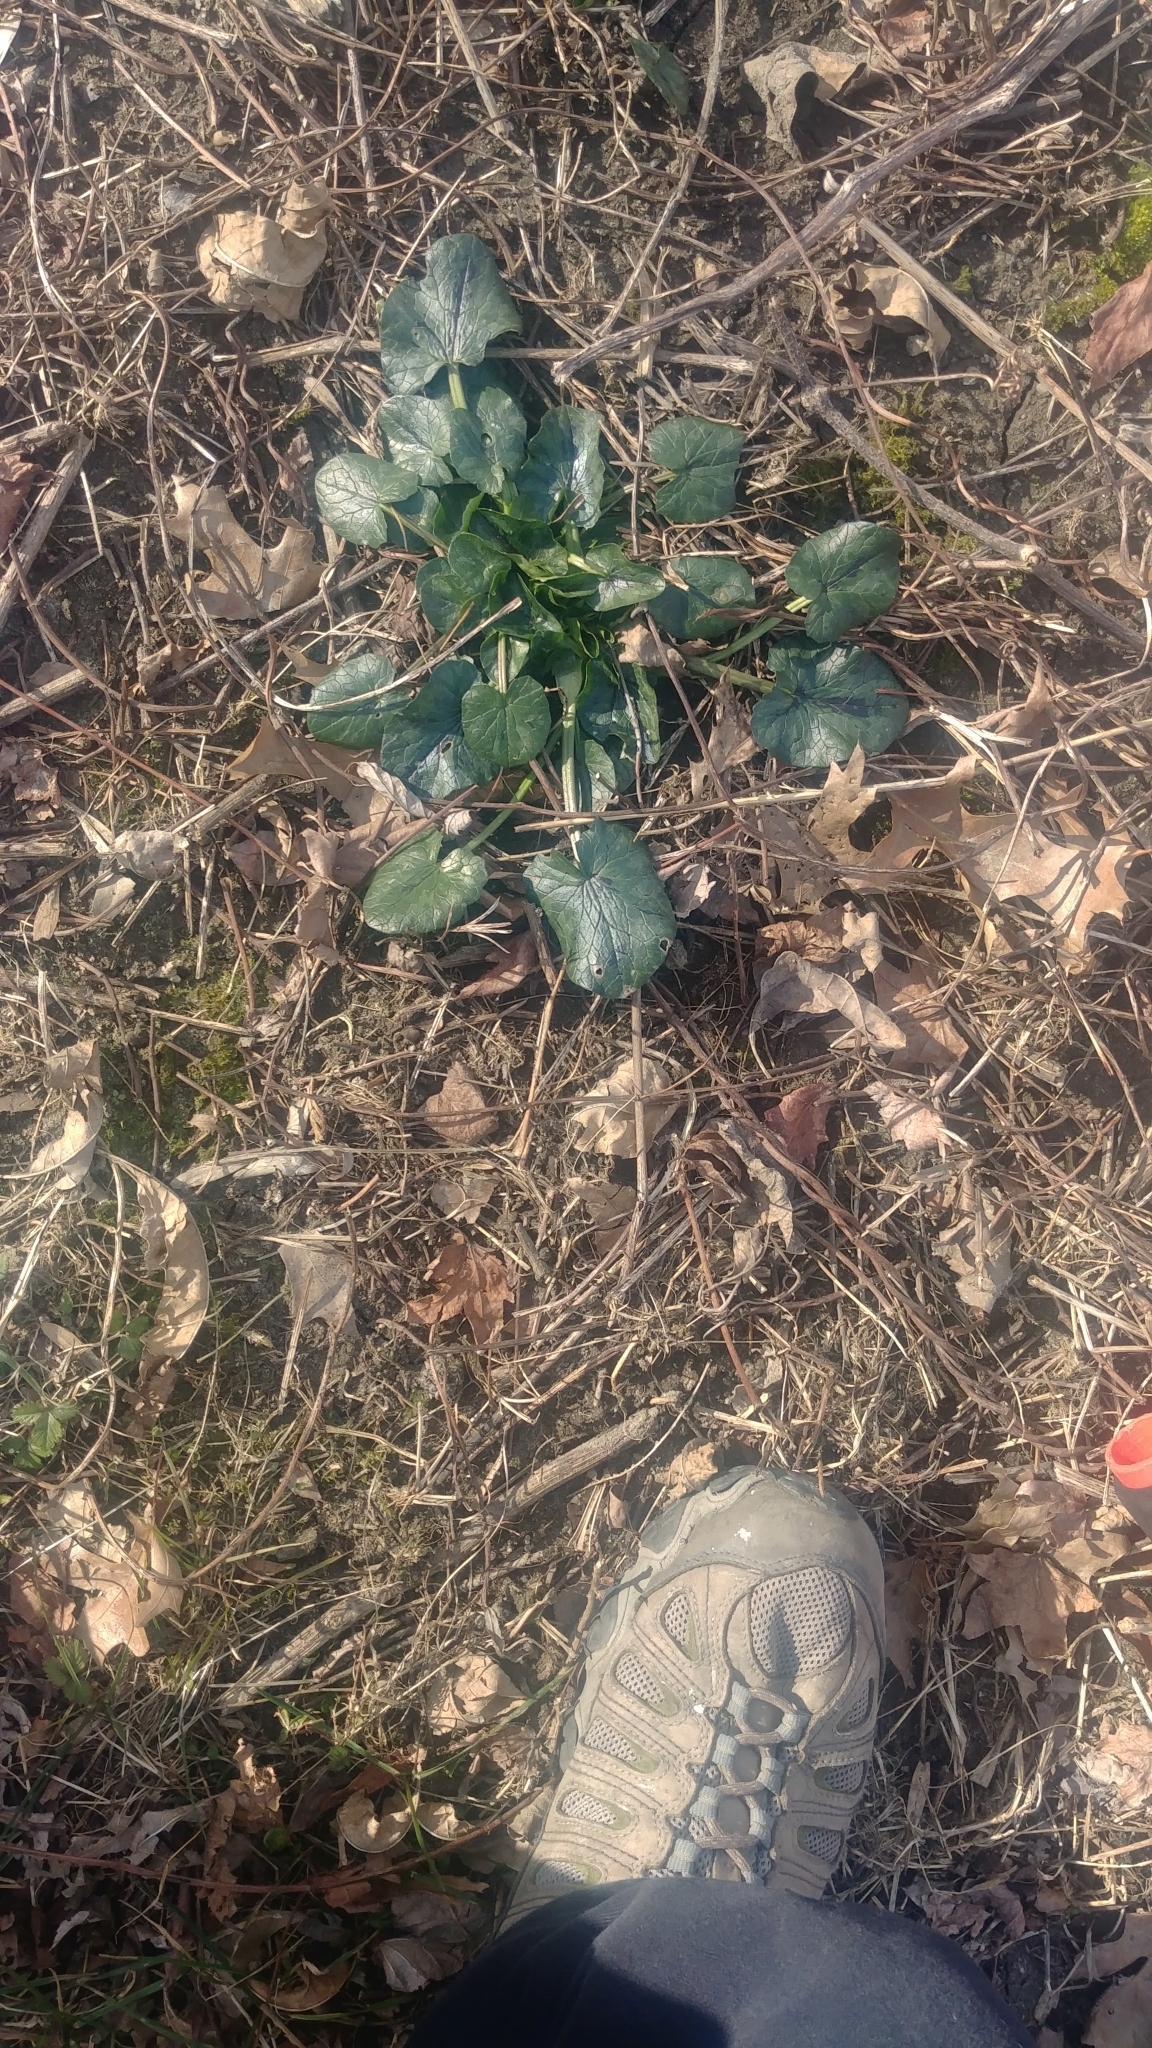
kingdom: Plantae
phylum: Tracheophyta
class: Magnoliopsida
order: Ranunculales
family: Ranunculaceae
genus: Ficaria
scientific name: Ficaria verna
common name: Lesser celandine
